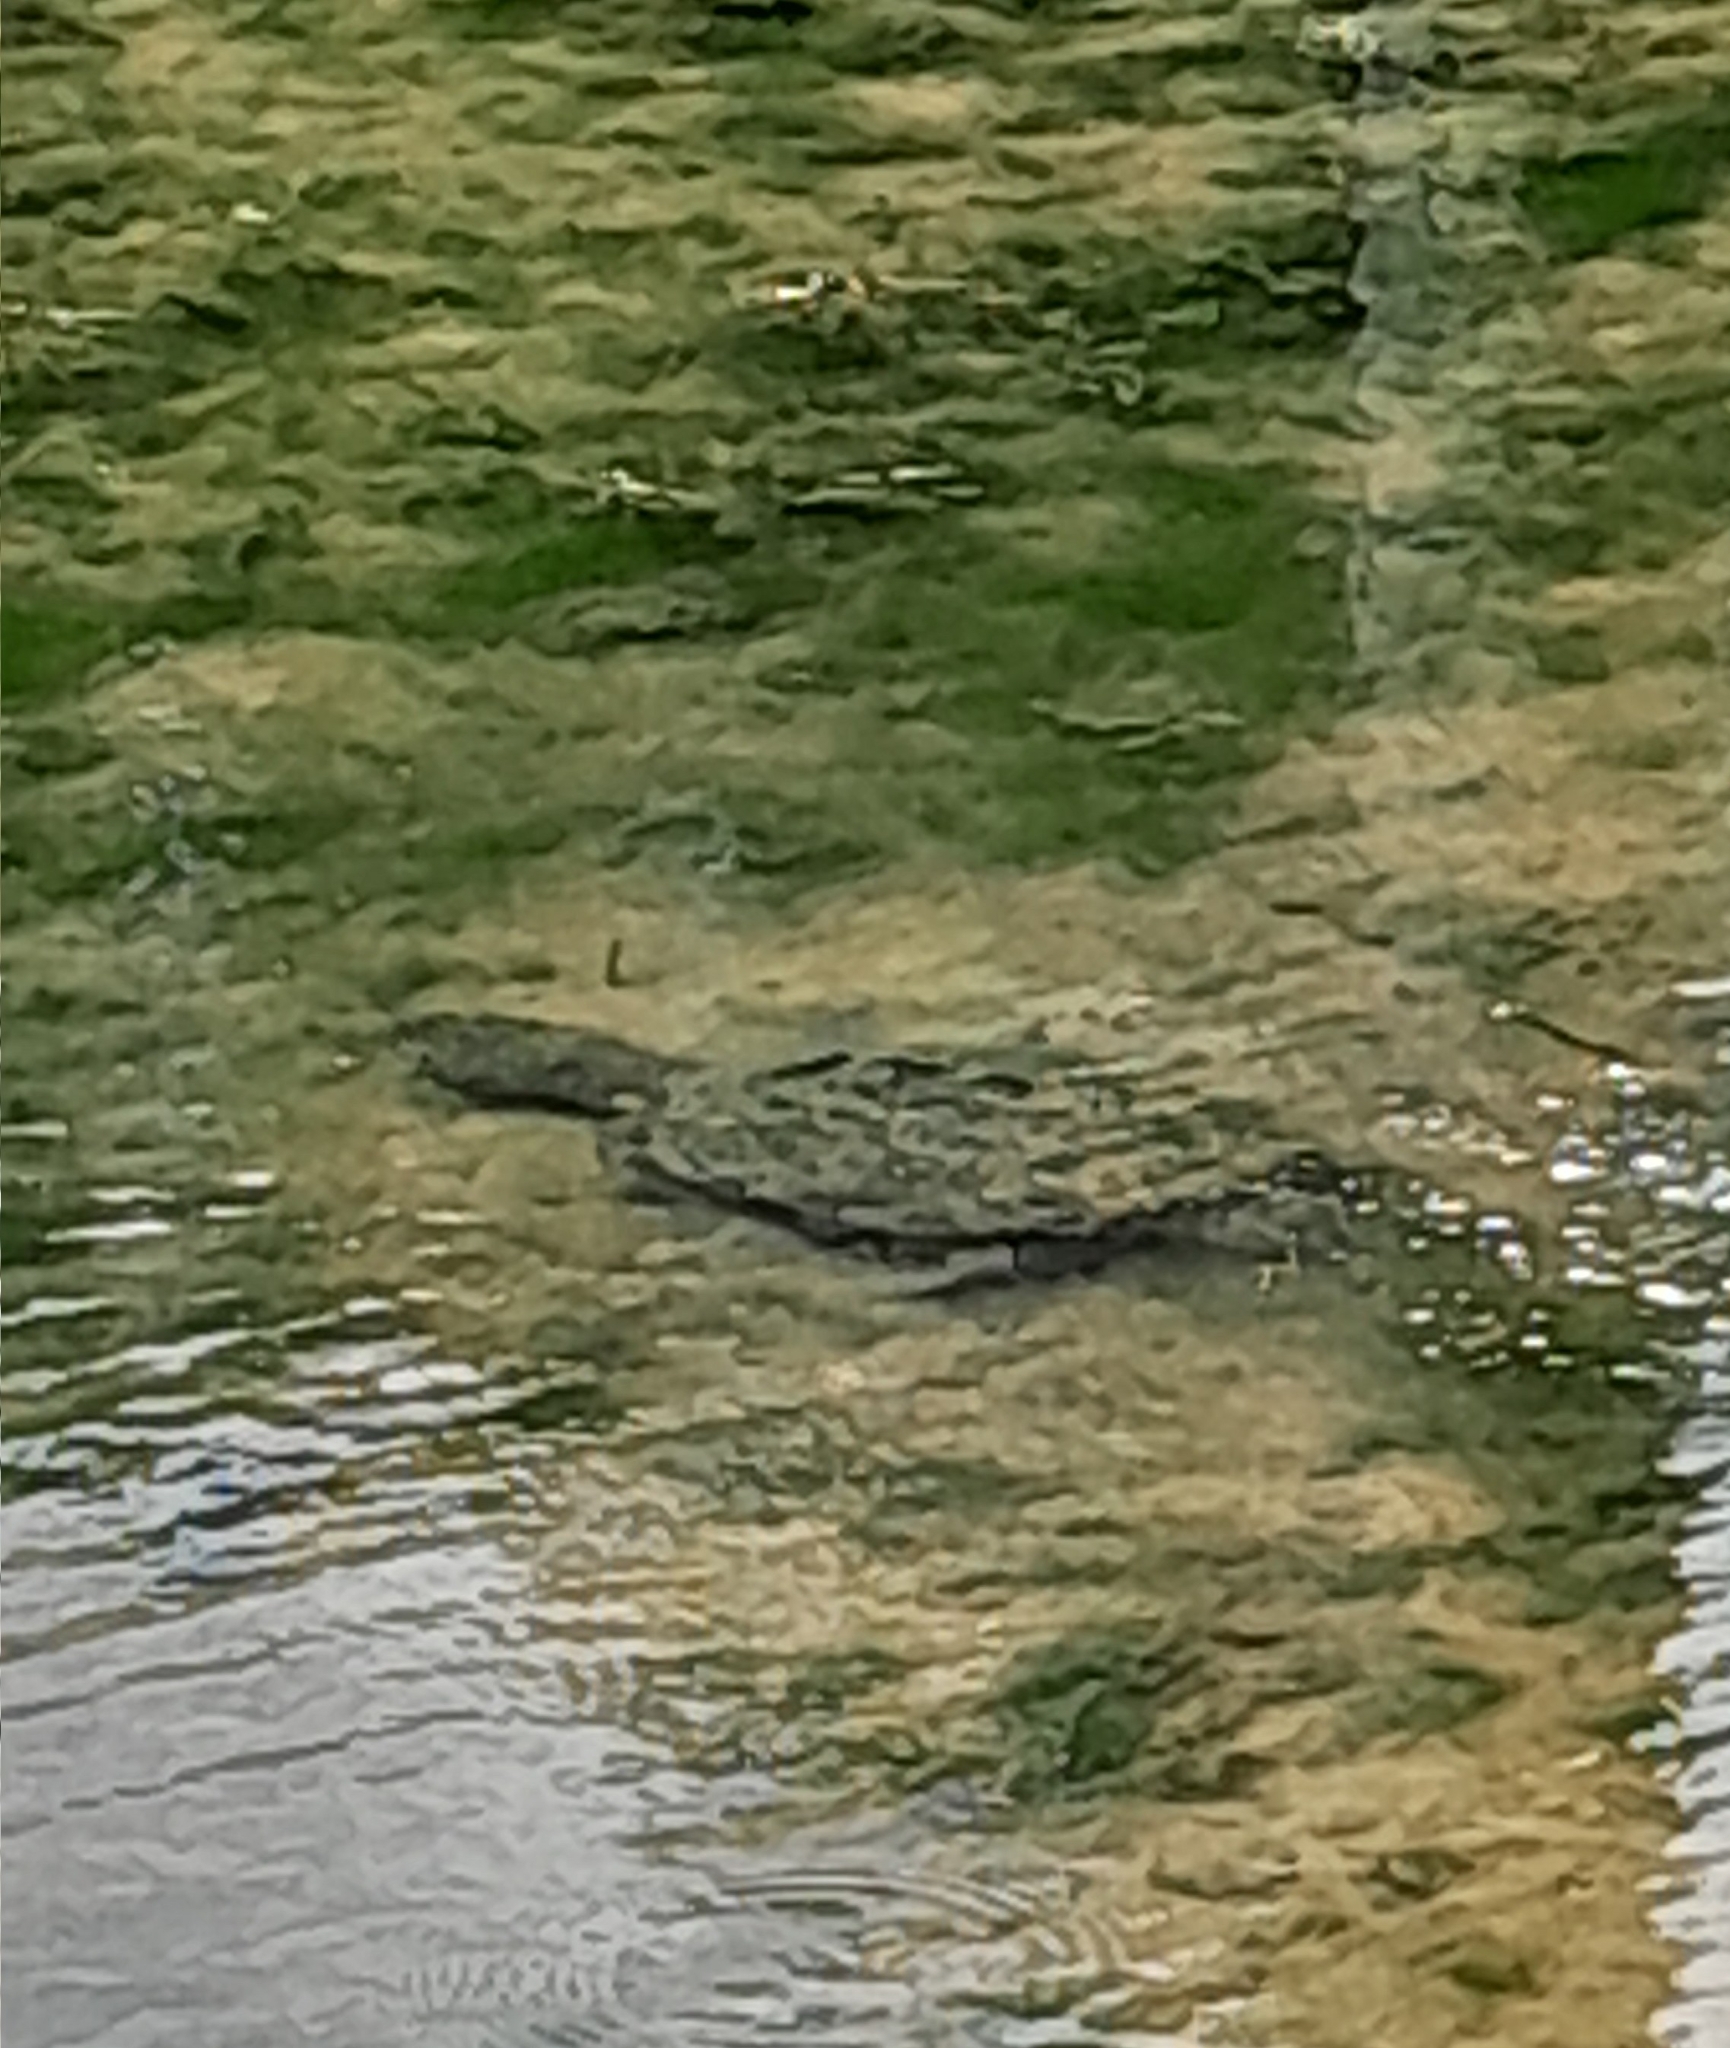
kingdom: Animalia
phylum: Chordata
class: Testudines
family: Chelydridae
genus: Chelydra
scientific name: Chelydra serpentina
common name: Common snapping turtle
